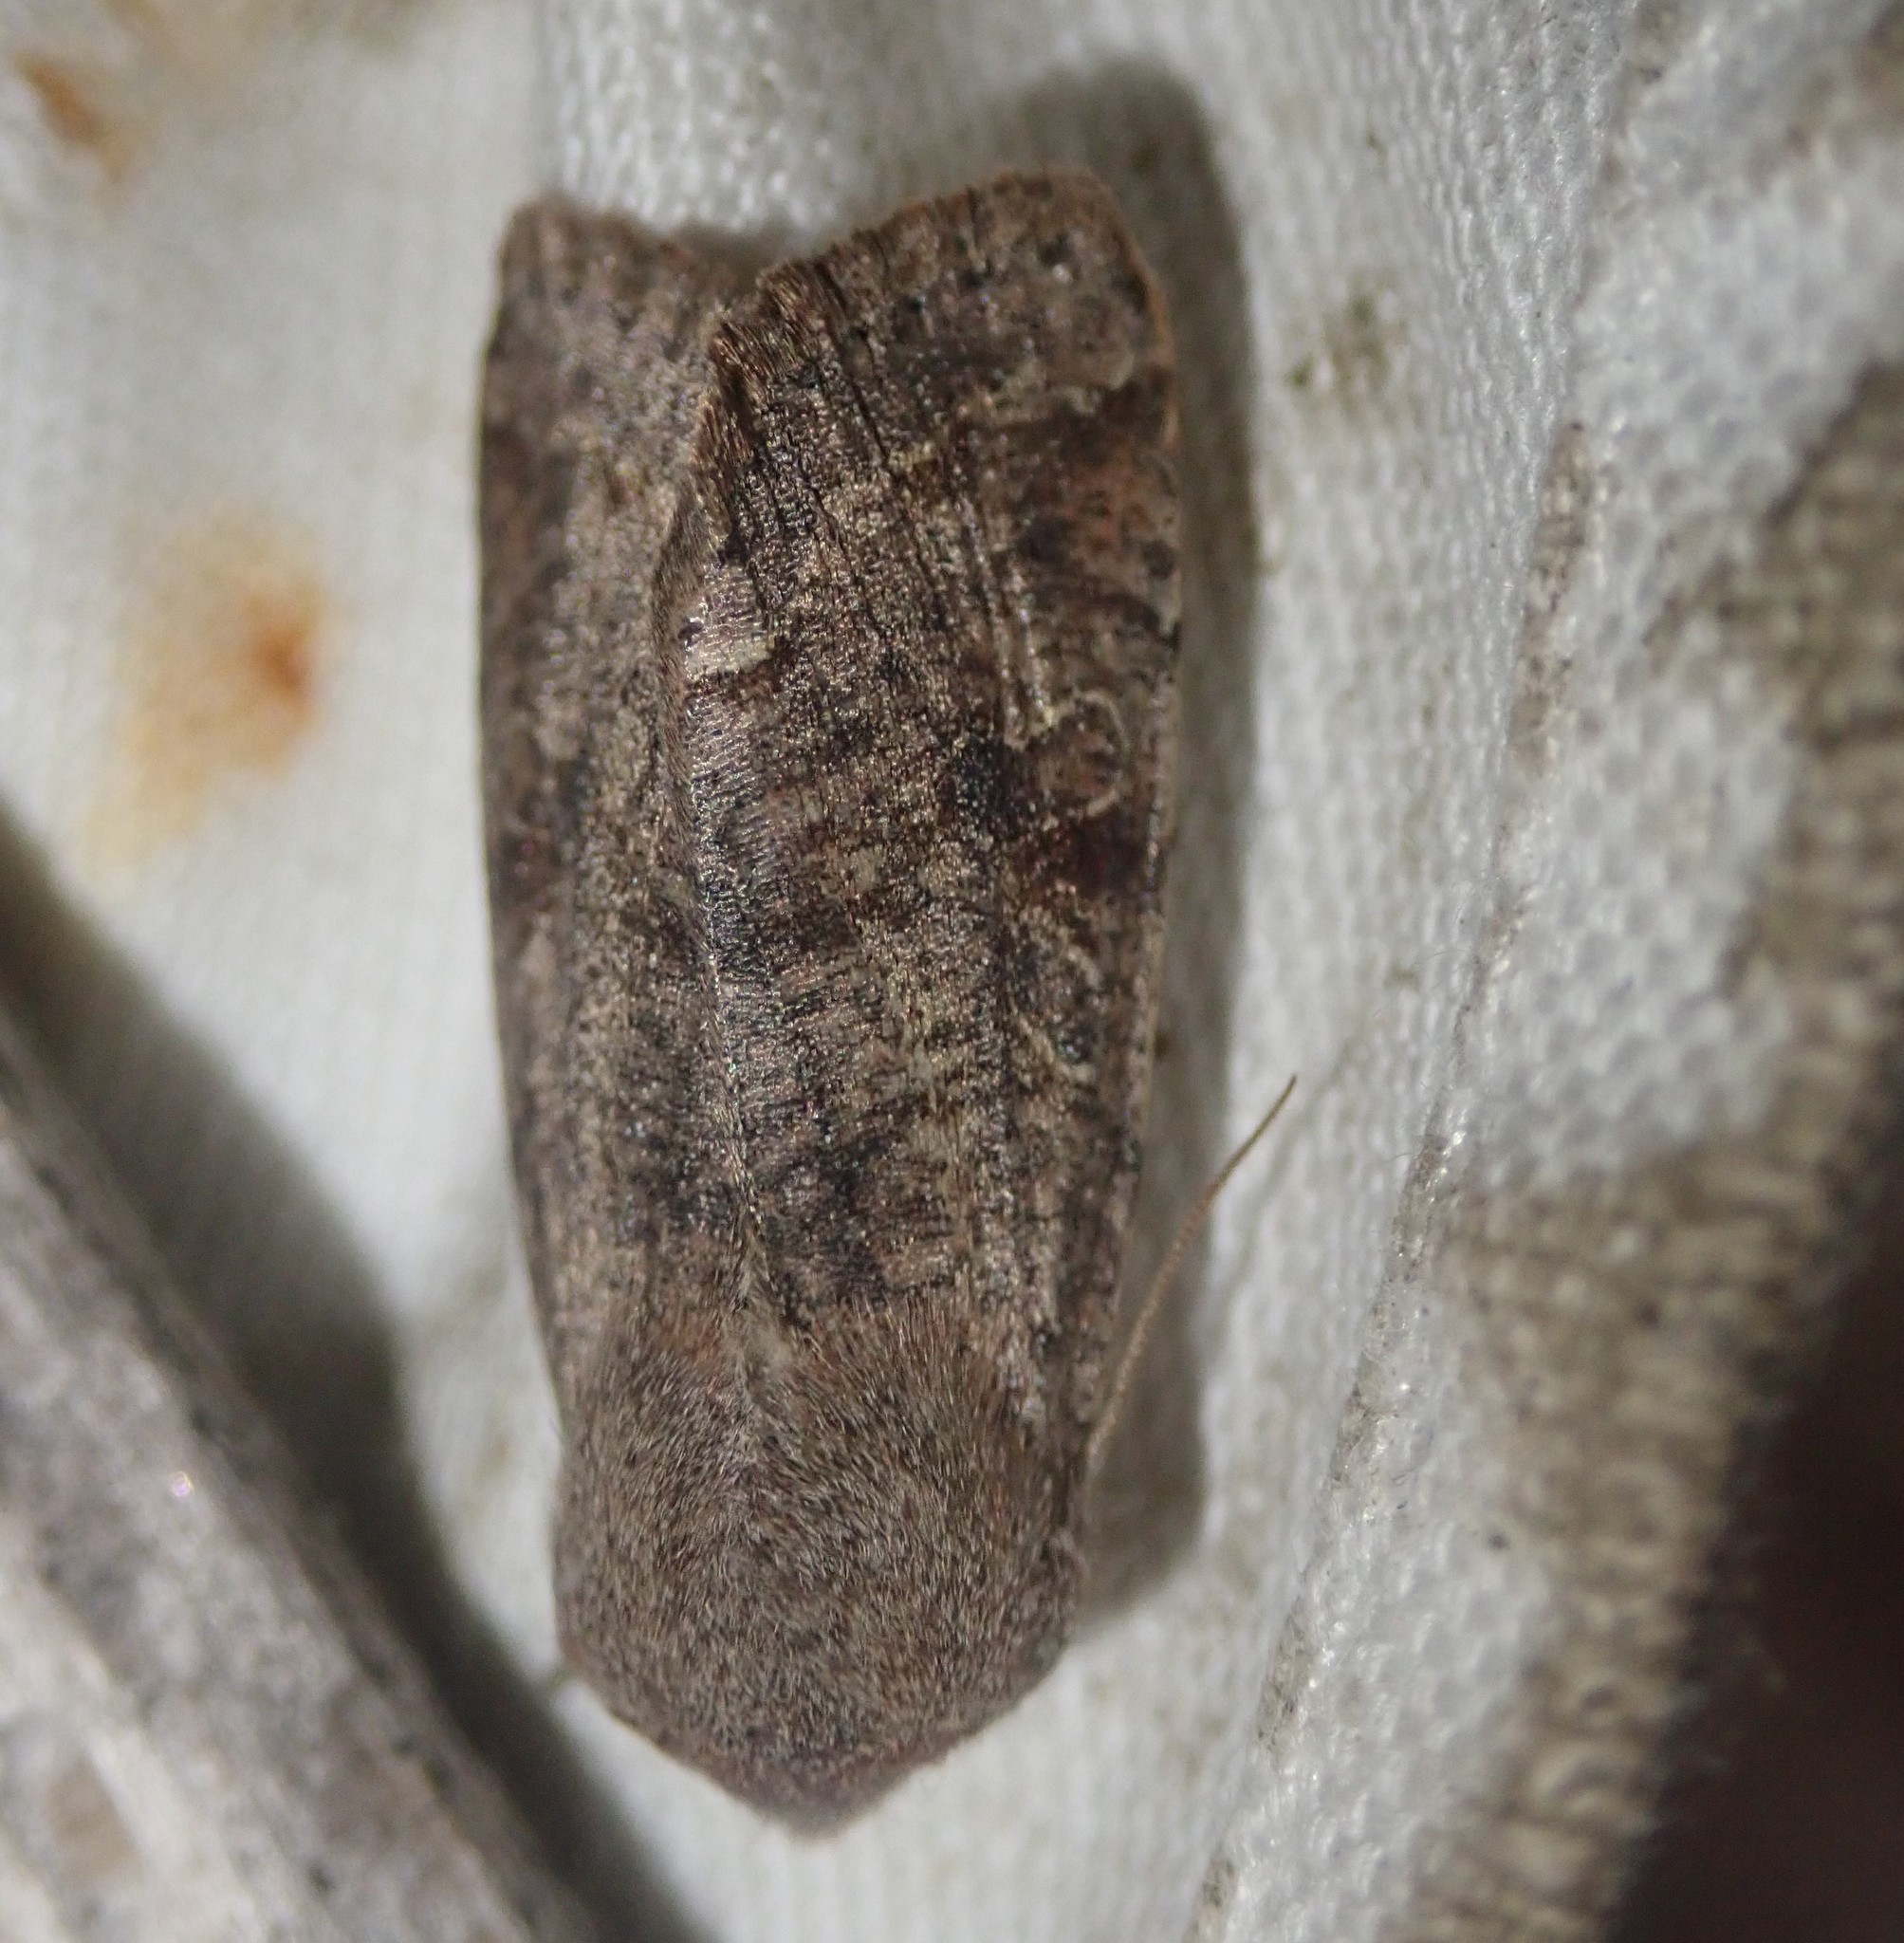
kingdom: Animalia
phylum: Arthropoda
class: Insecta
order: Lepidoptera
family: Noctuidae
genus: Orthosia
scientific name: Orthosia incerta
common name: Clouded drab
